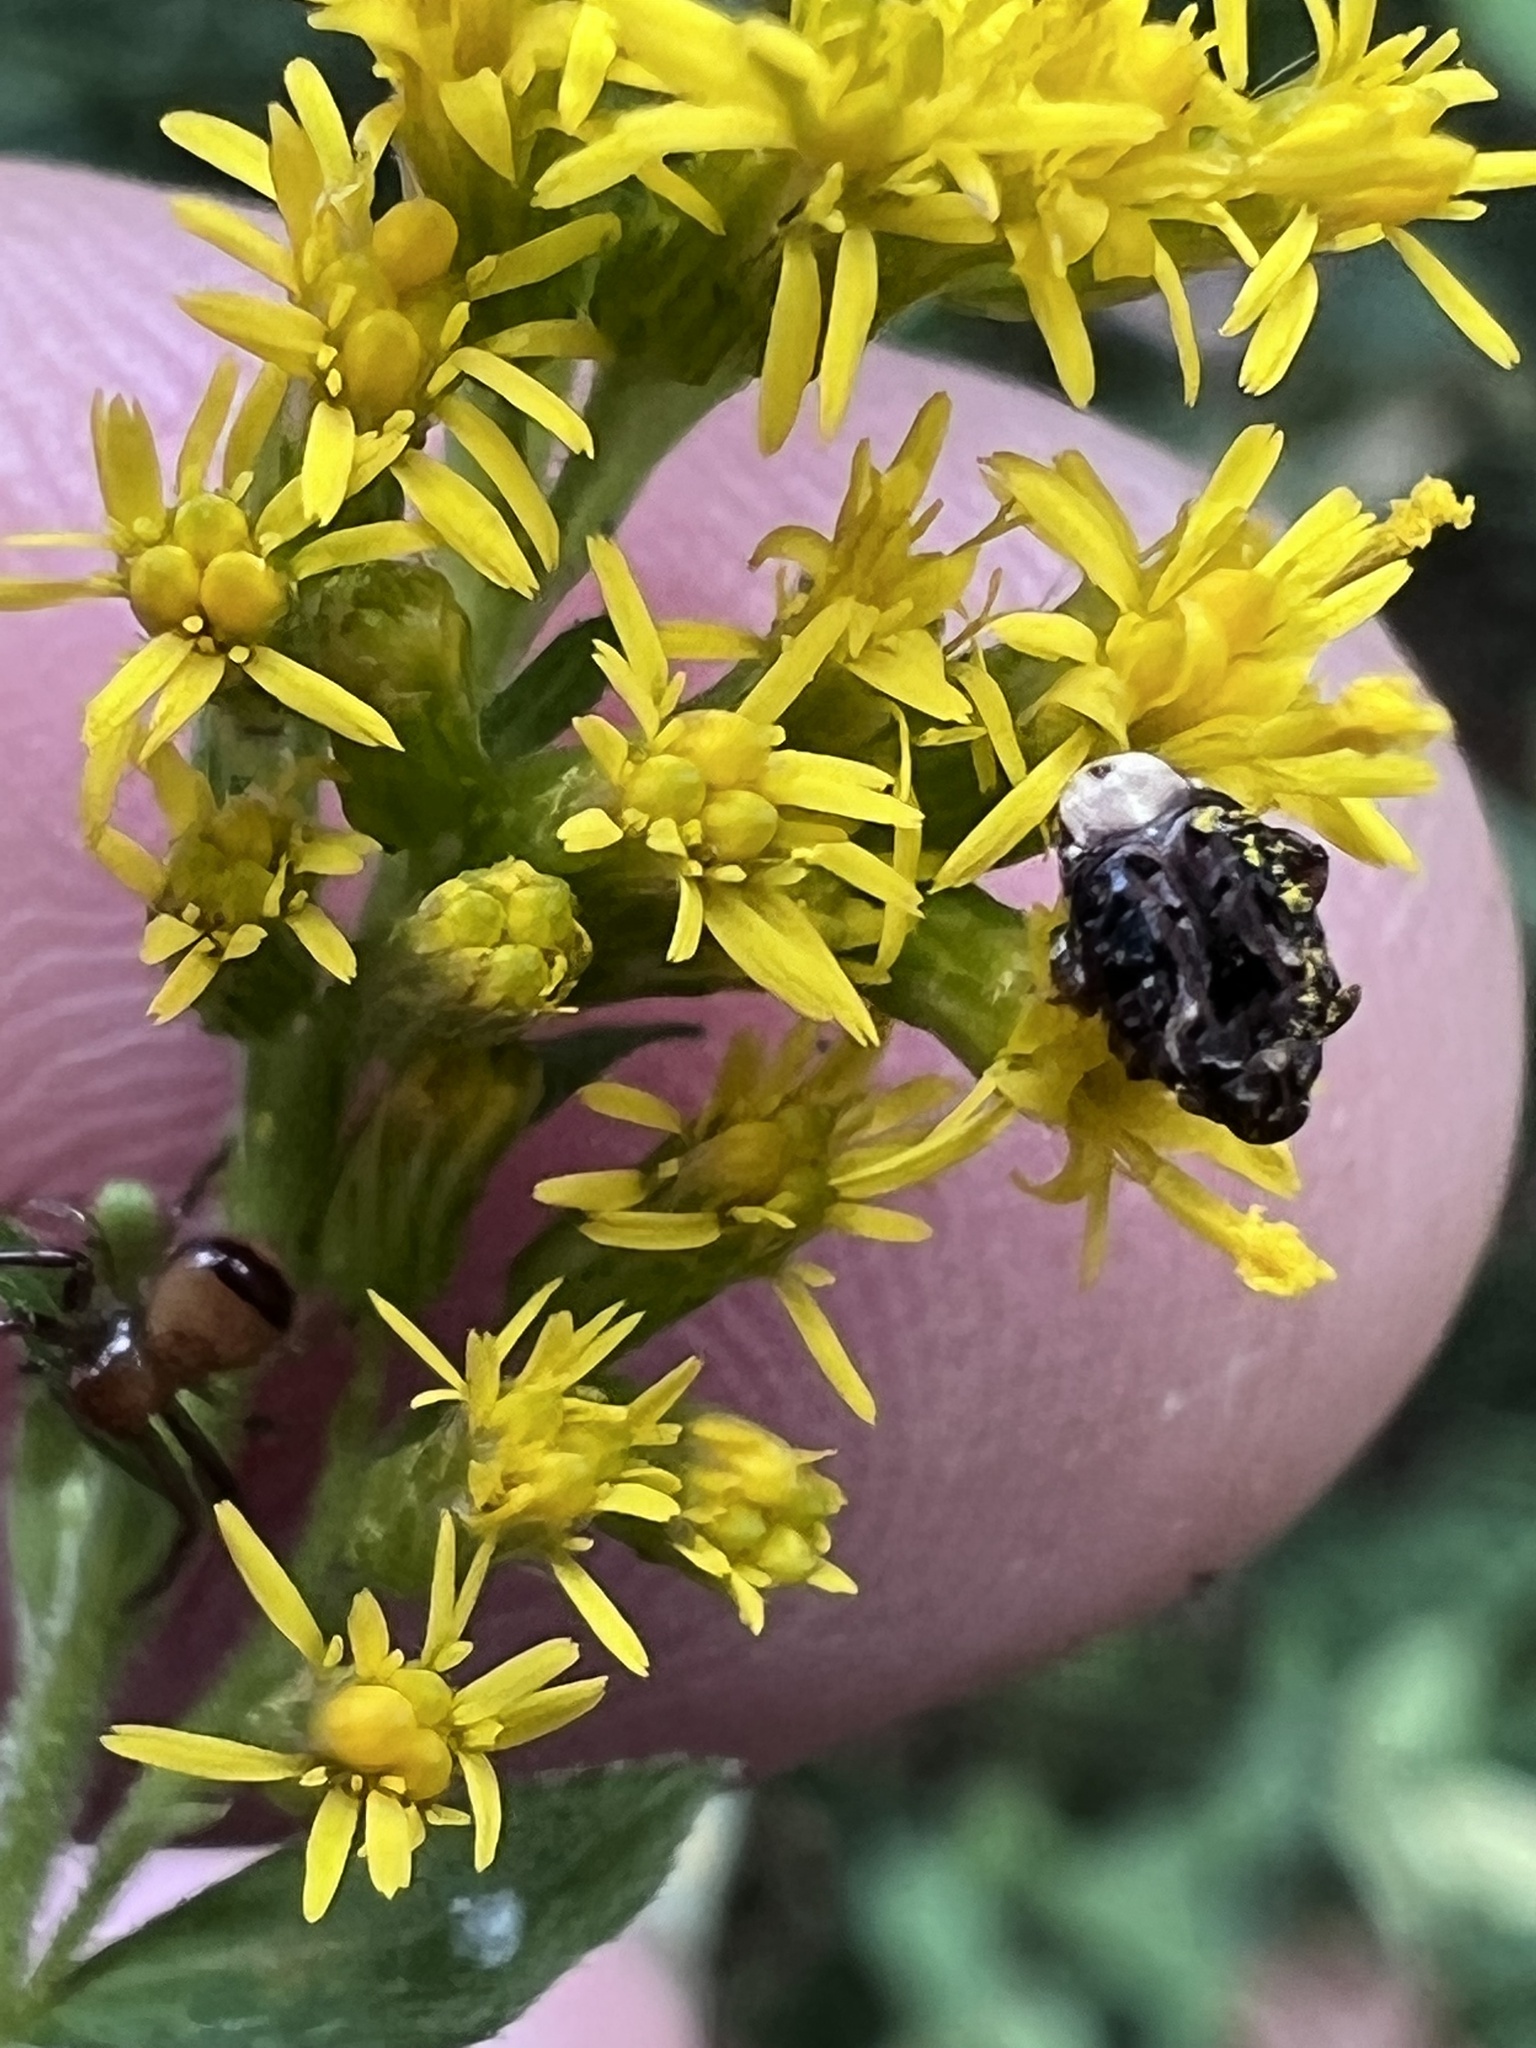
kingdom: Animalia
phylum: Arthropoda
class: Arachnida
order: Araneae
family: Thomisidae
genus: Synema
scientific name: Synema parvulum
